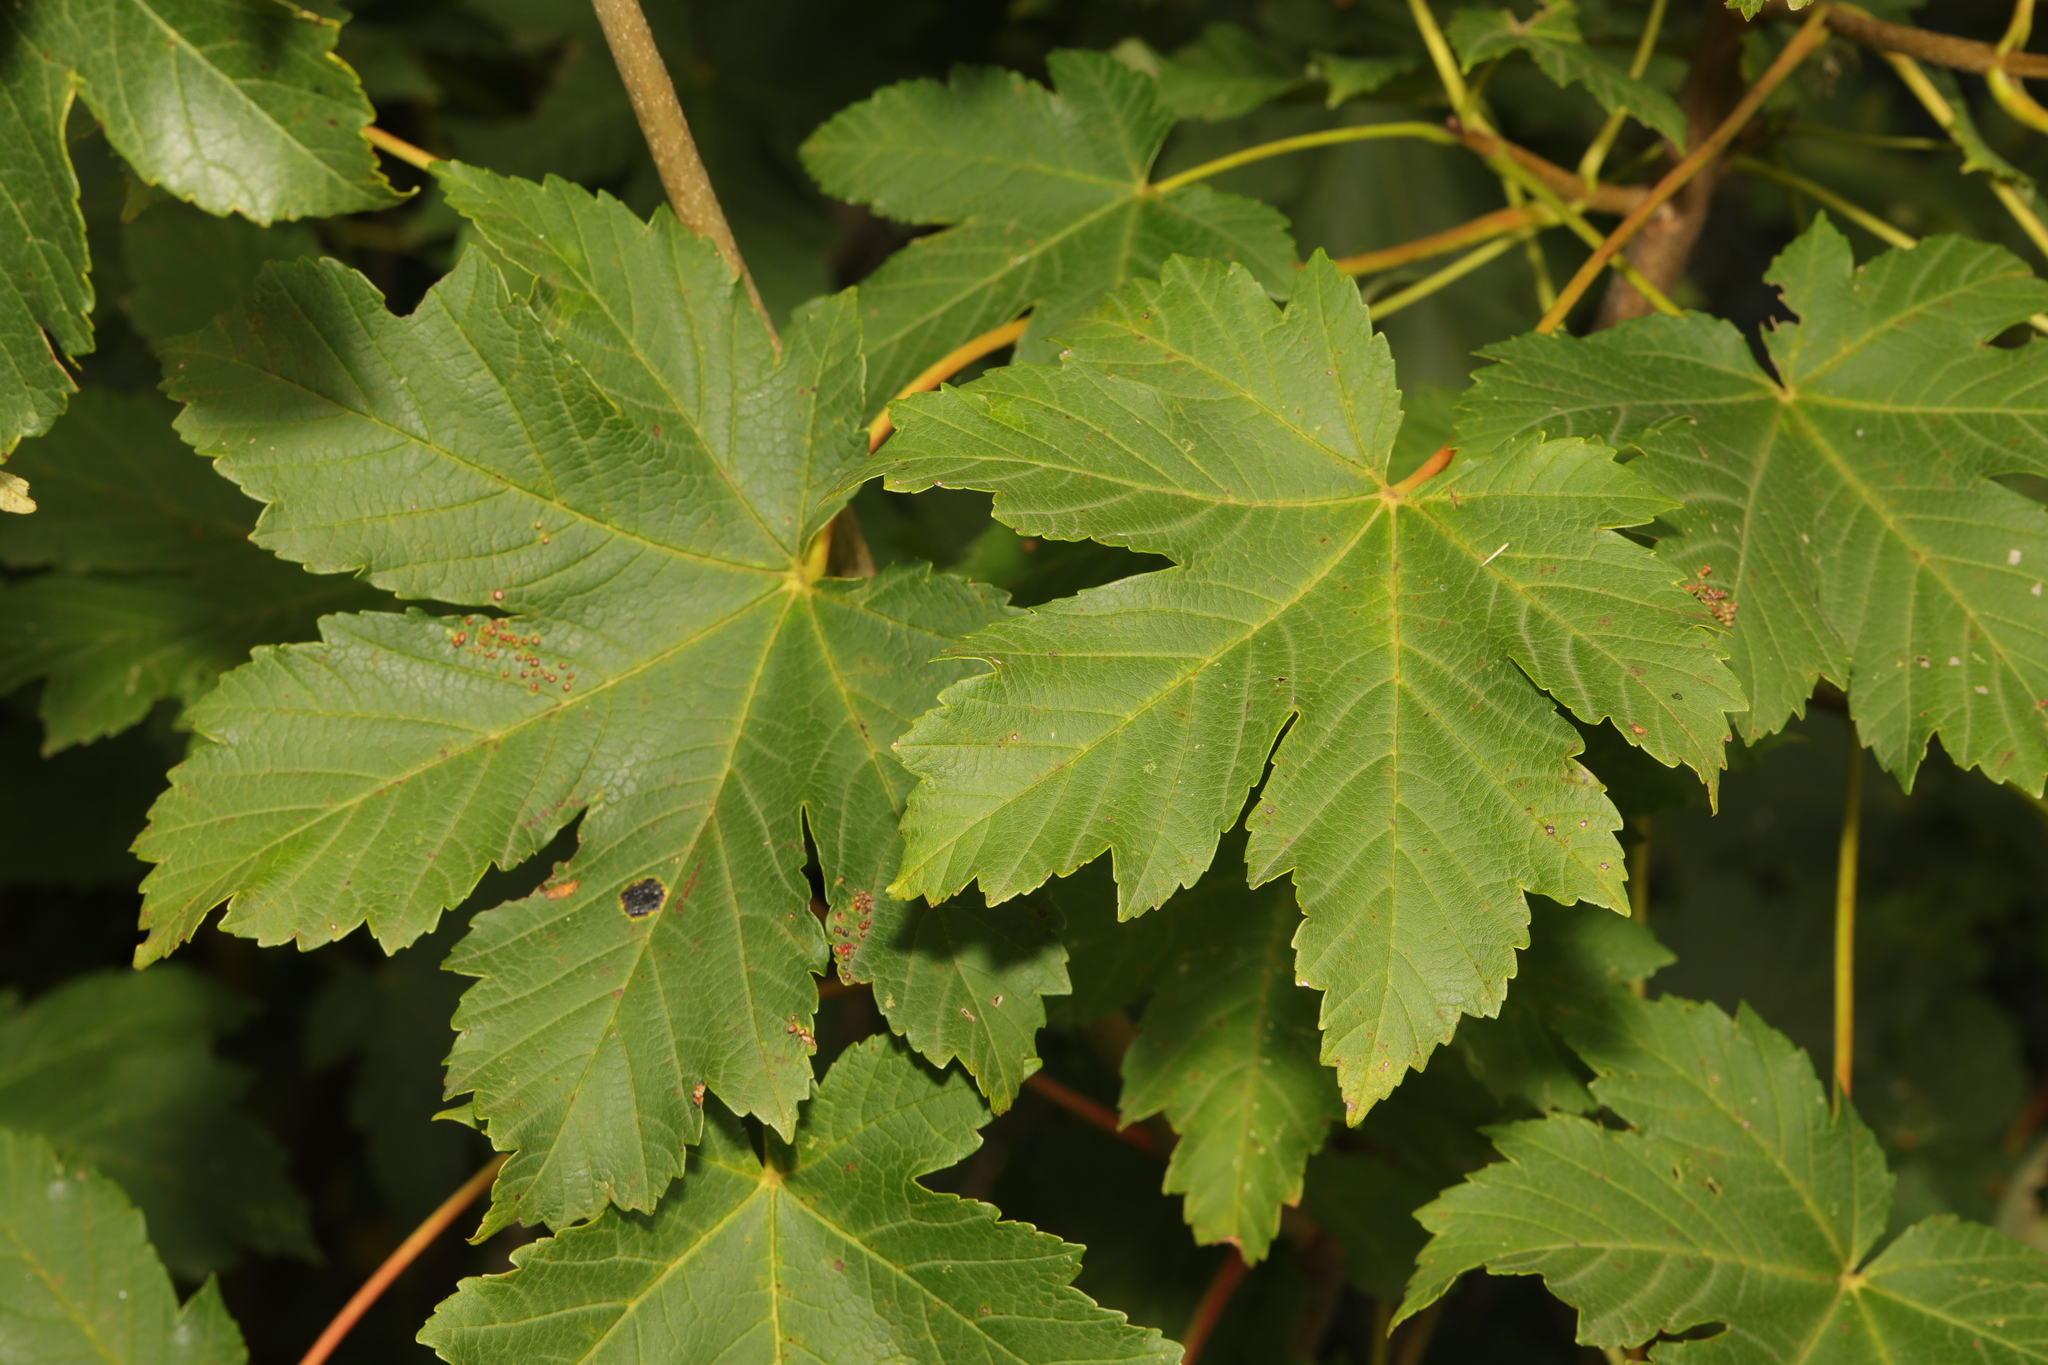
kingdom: Plantae
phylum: Tracheophyta
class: Magnoliopsida
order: Sapindales
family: Sapindaceae
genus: Acer
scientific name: Acer pseudoplatanus
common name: Sycamore
